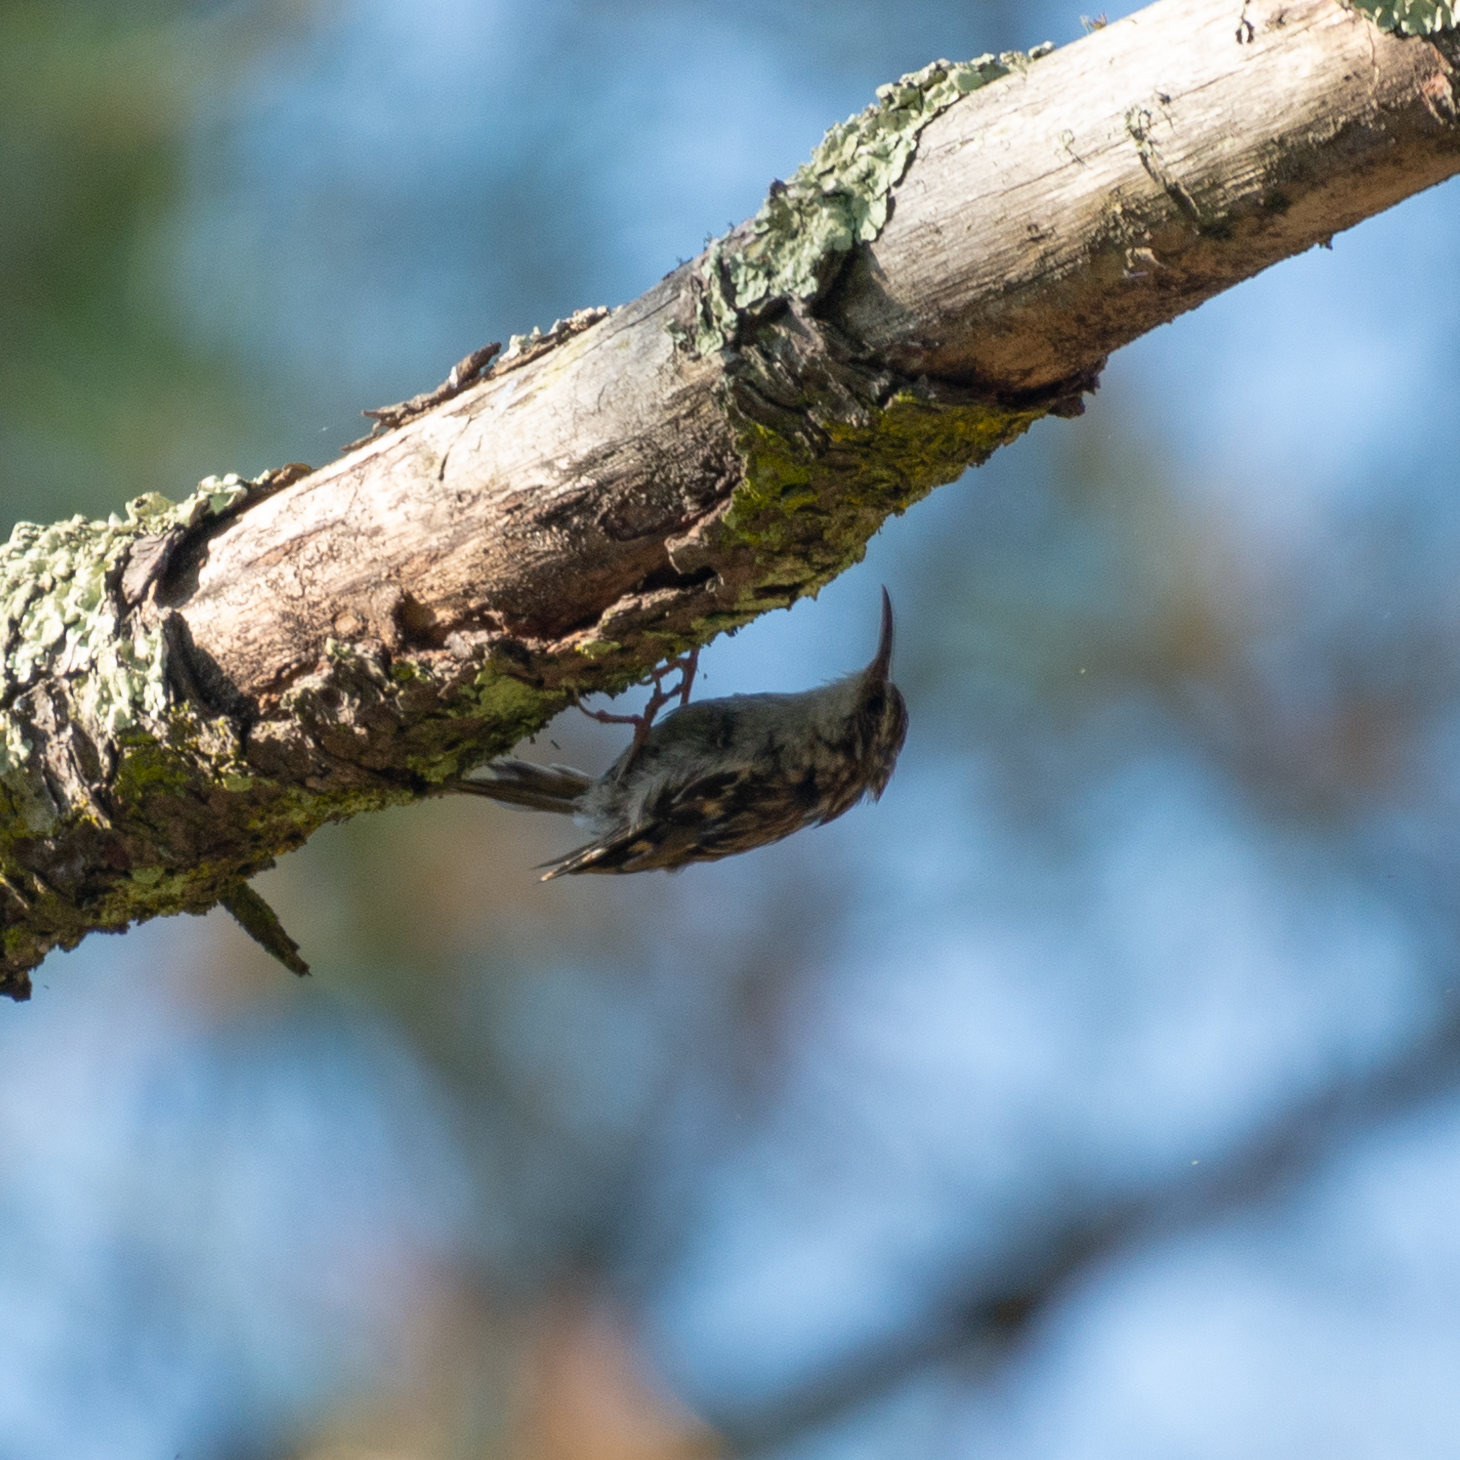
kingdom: Animalia
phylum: Chordata
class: Aves
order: Passeriformes
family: Certhiidae
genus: Certhia
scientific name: Certhia brachydactyla
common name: Short-toed treecreeper
